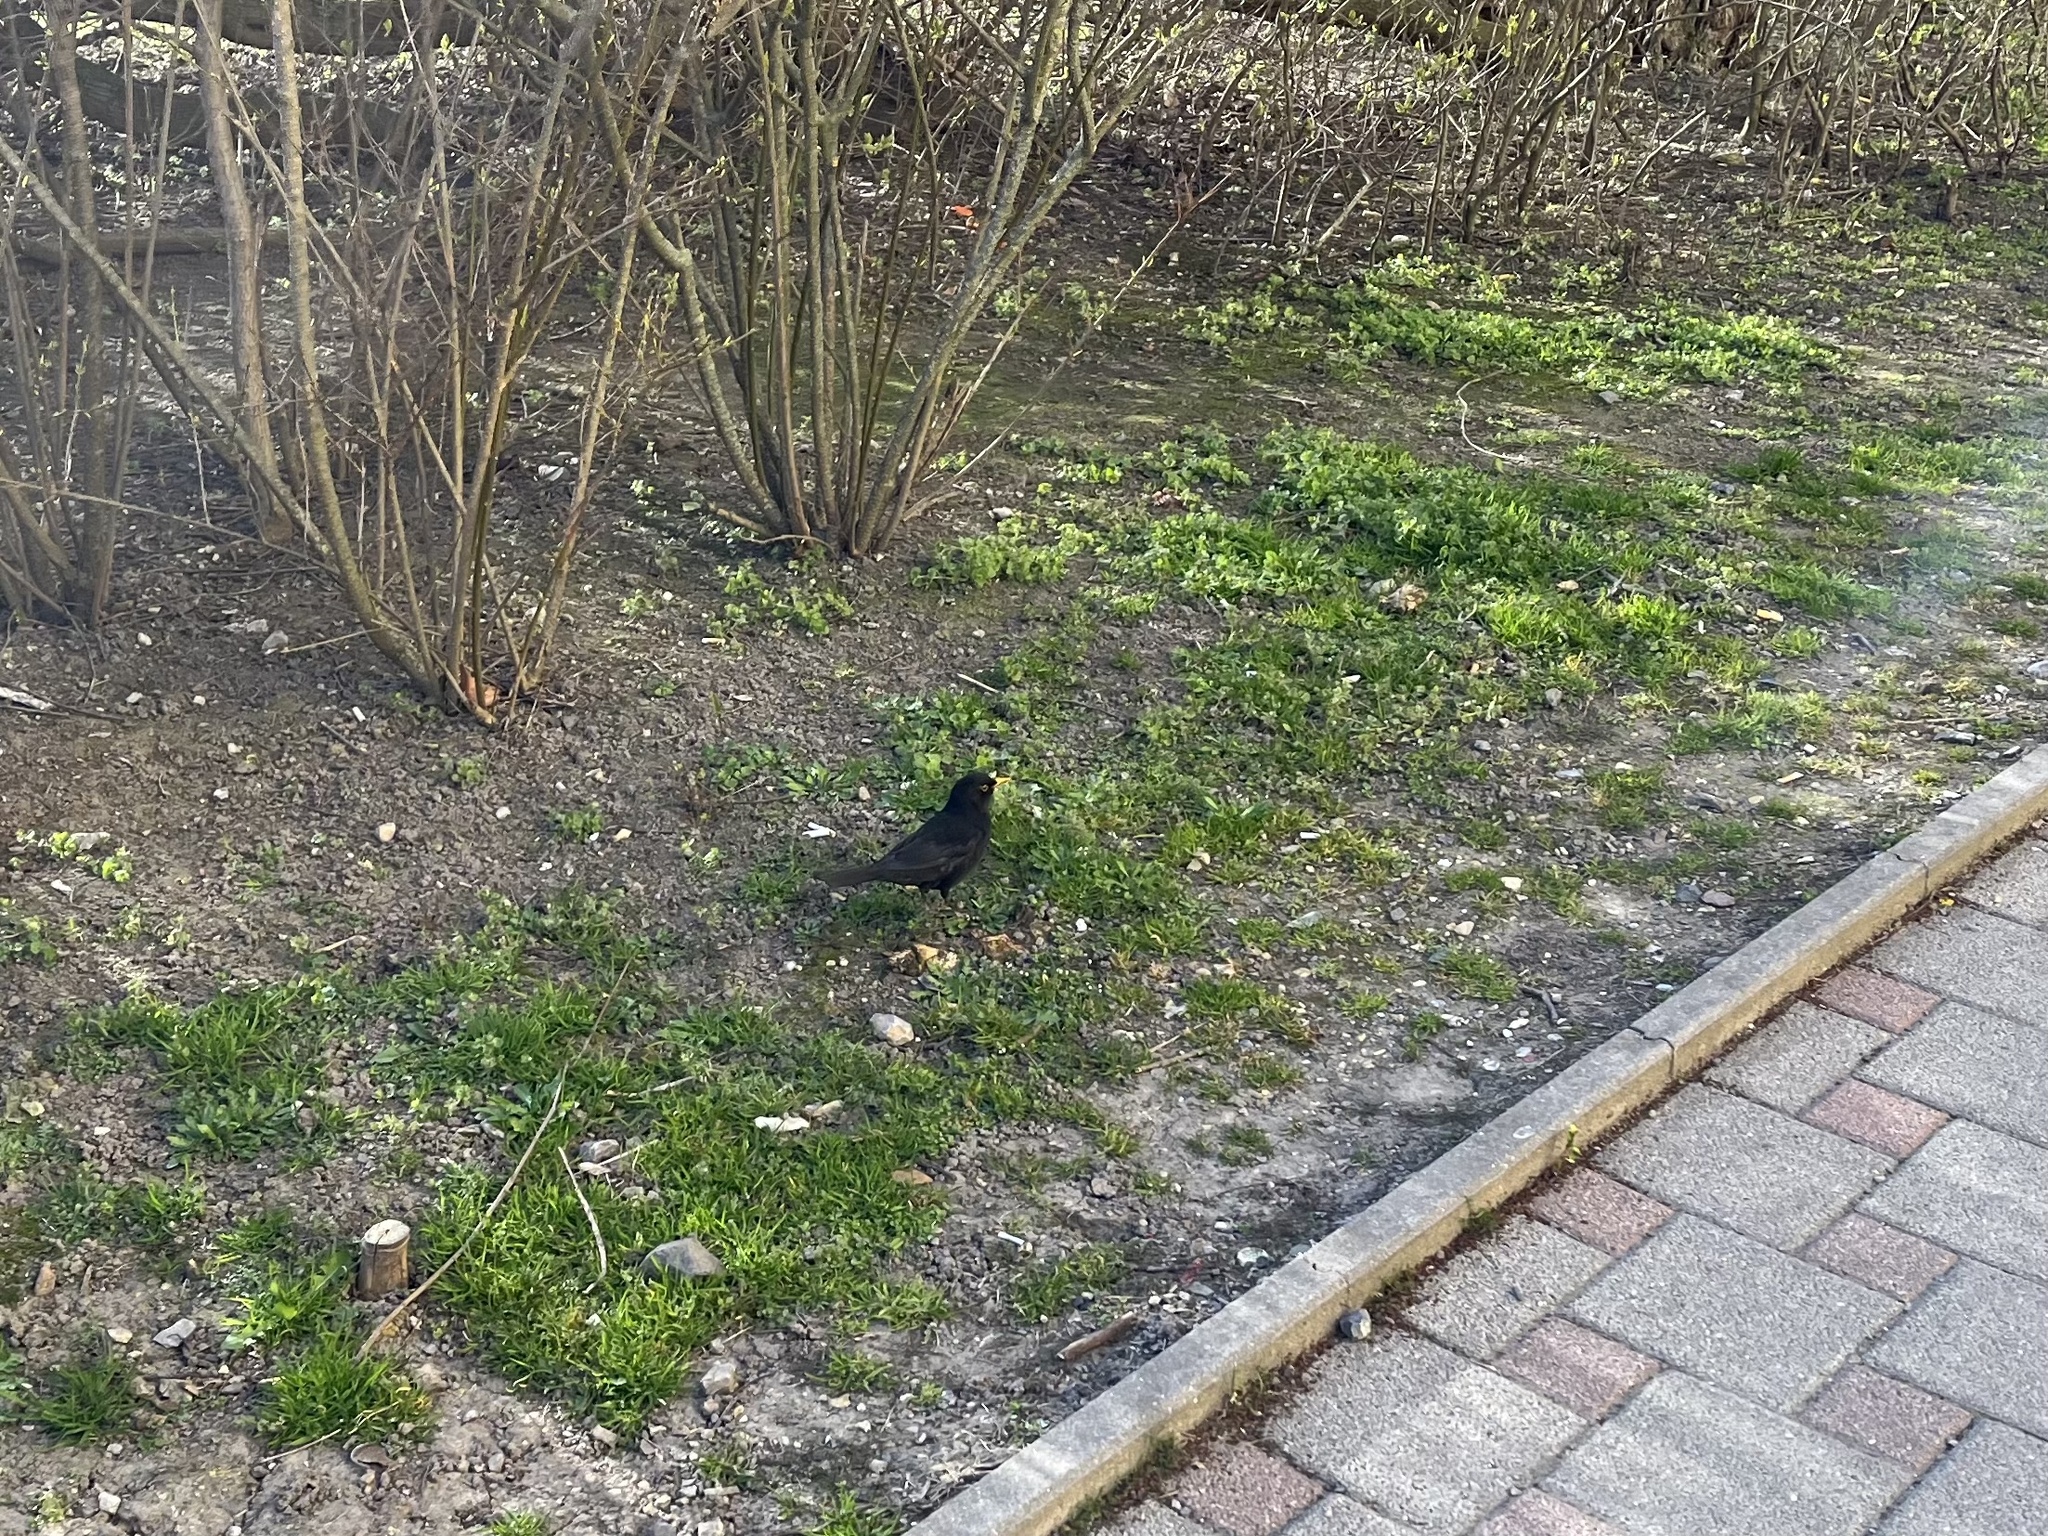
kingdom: Animalia
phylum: Chordata
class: Aves
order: Passeriformes
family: Turdidae
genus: Turdus
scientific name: Turdus merula
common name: Common blackbird
